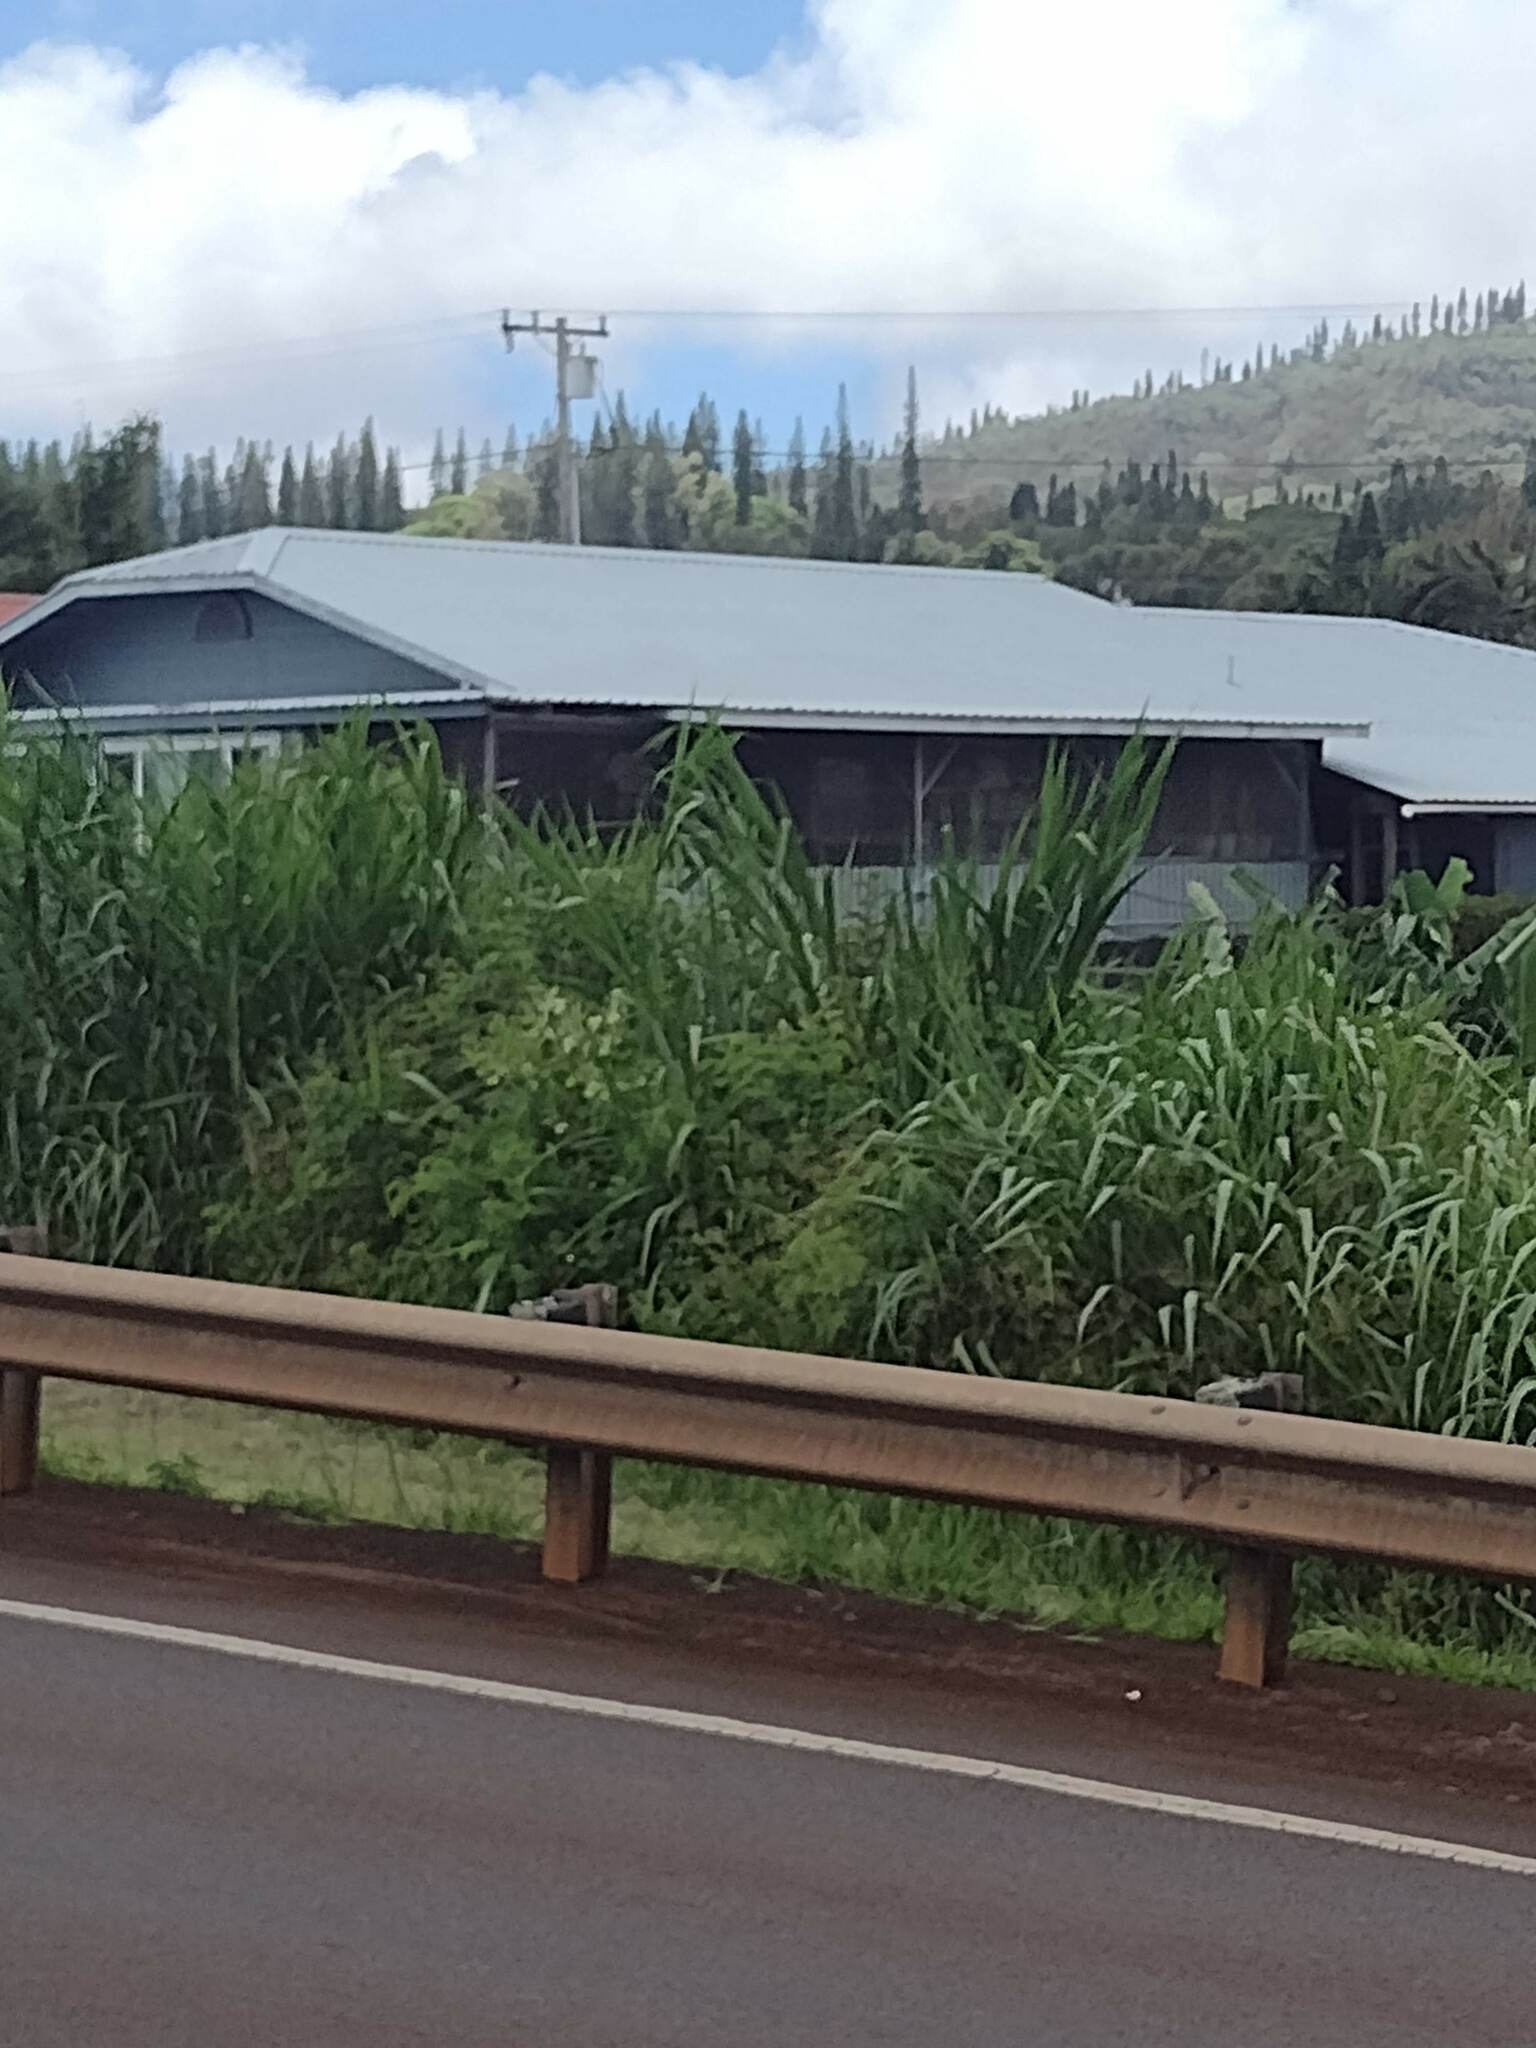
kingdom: Plantae
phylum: Tracheophyta
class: Liliopsida
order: Poales
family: Poaceae
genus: Cenchrus
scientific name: Cenchrus purpureus
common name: Elephant grass
